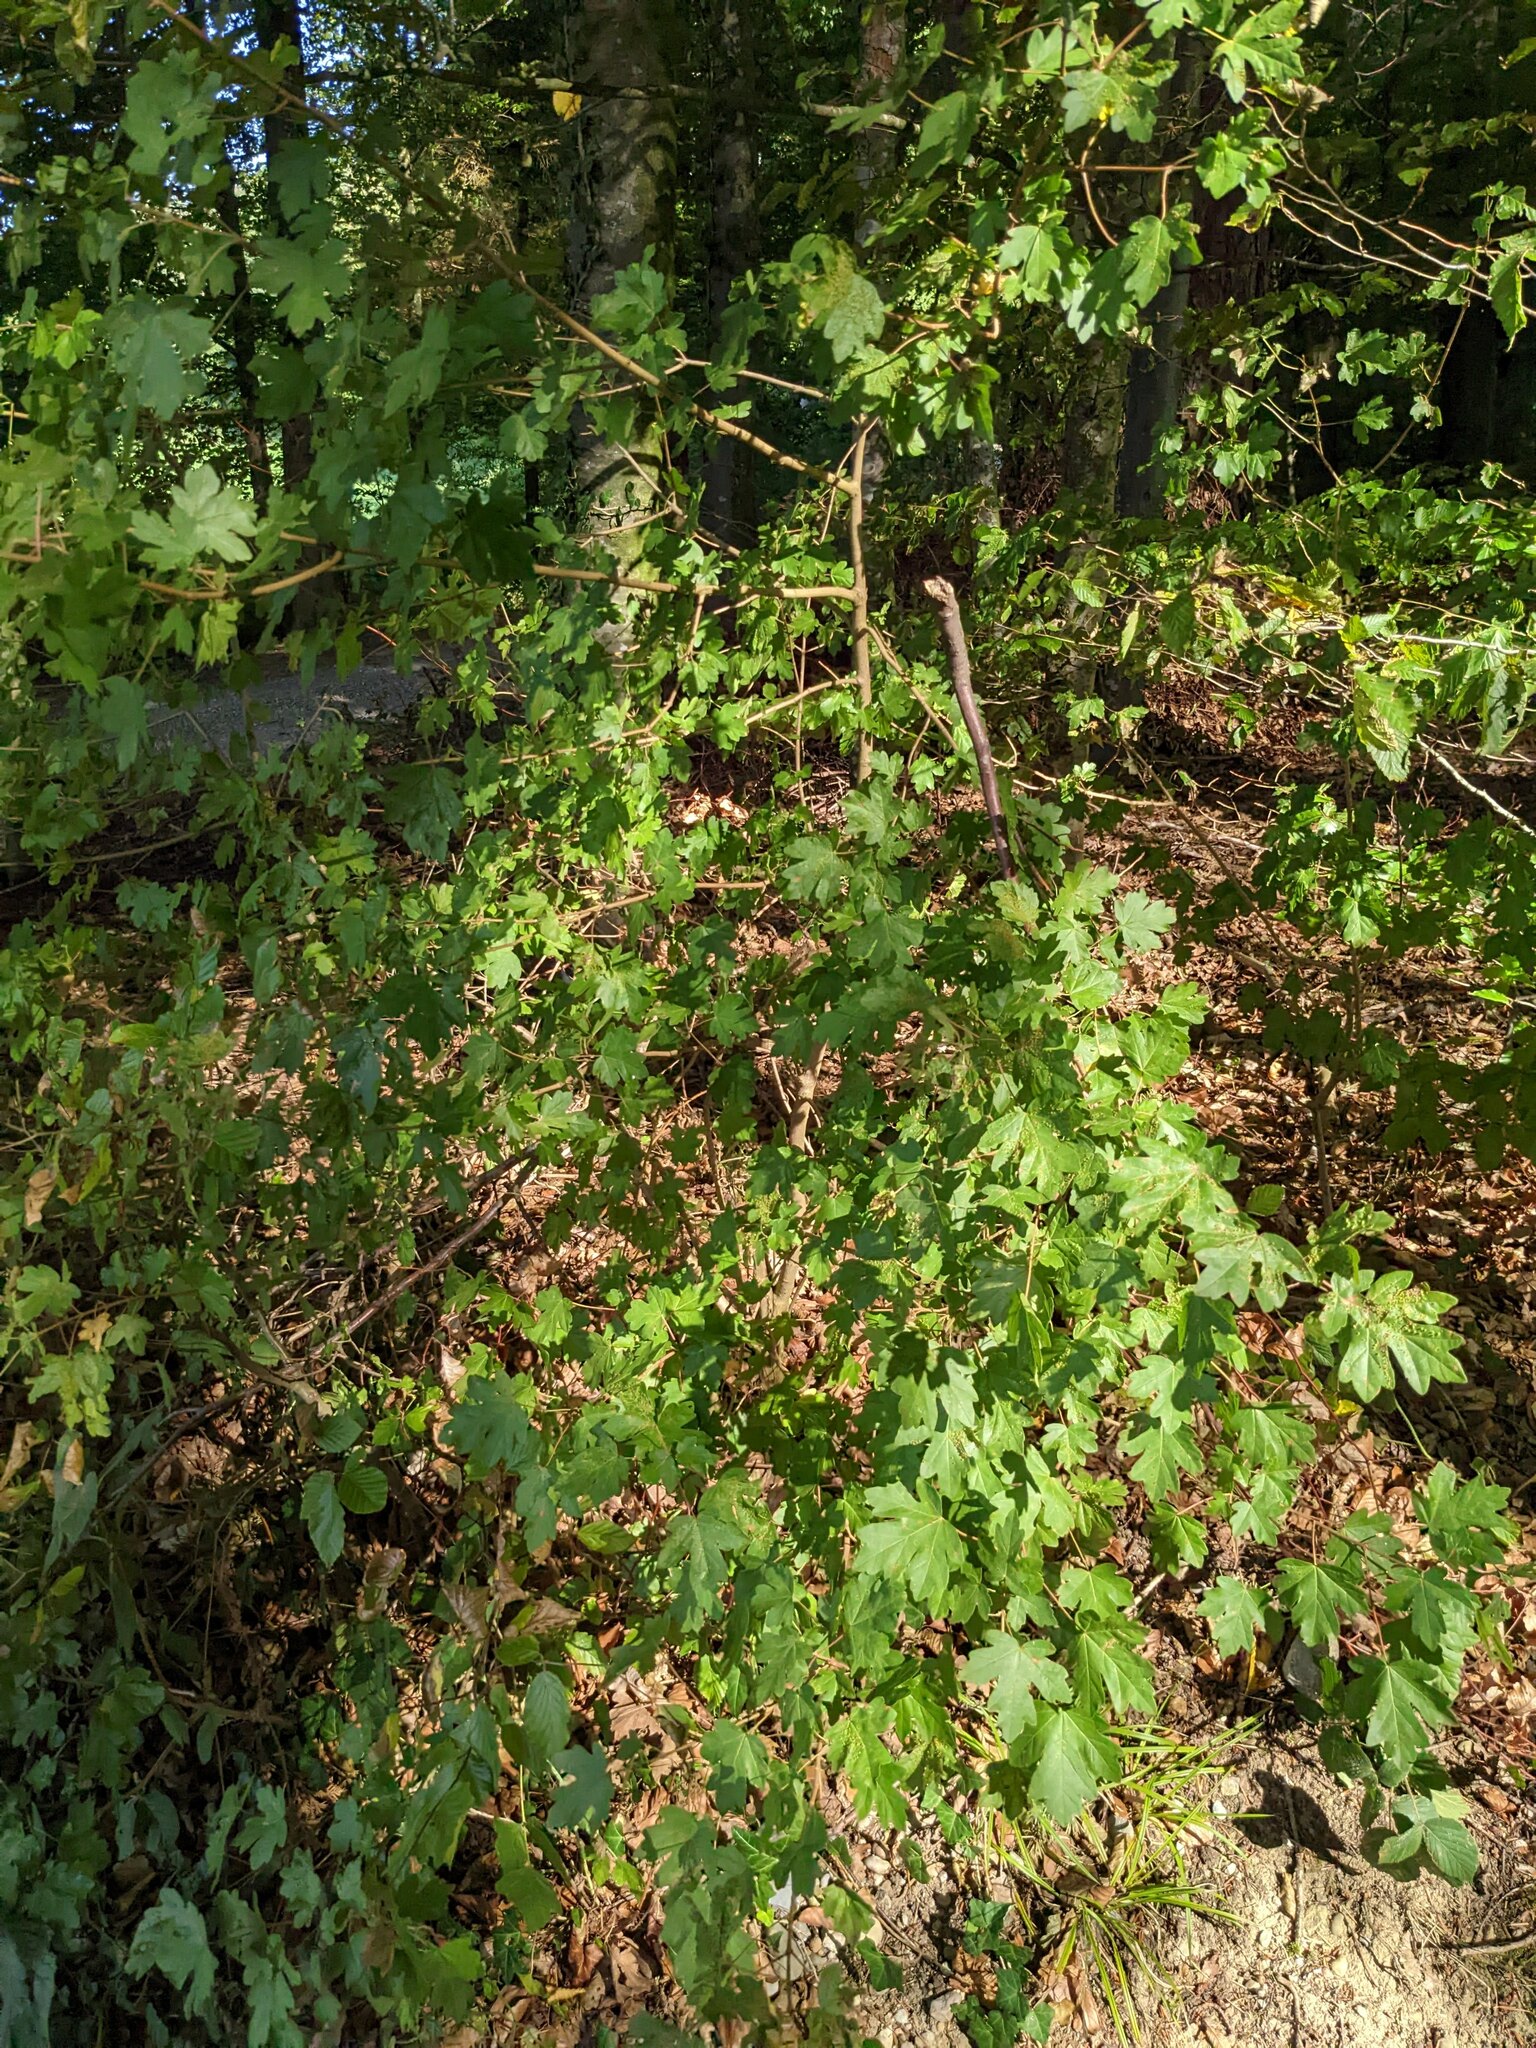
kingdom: Plantae
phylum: Tracheophyta
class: Magnoliopsida
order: Sapindales
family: Sapindaceae
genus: Acer
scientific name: Acer campestre
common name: Field maple
